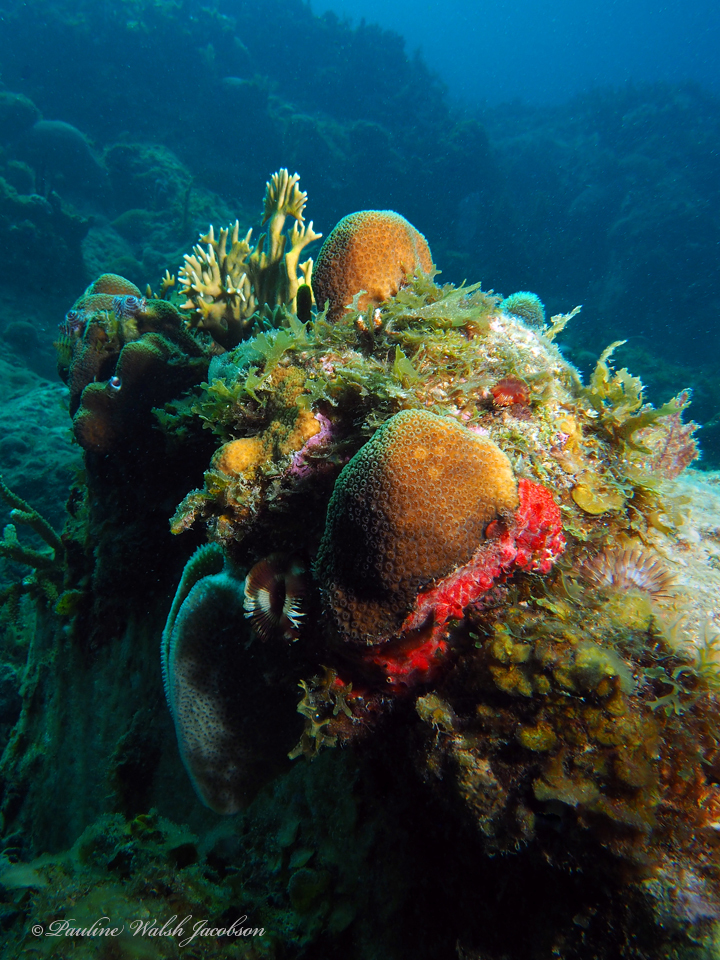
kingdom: Animalia
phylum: Cnidaria
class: Hydrozoa
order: Anthoathecata
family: Milleporidae
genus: Millepora
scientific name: Millepora alcicornis
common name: Branching fire coral
